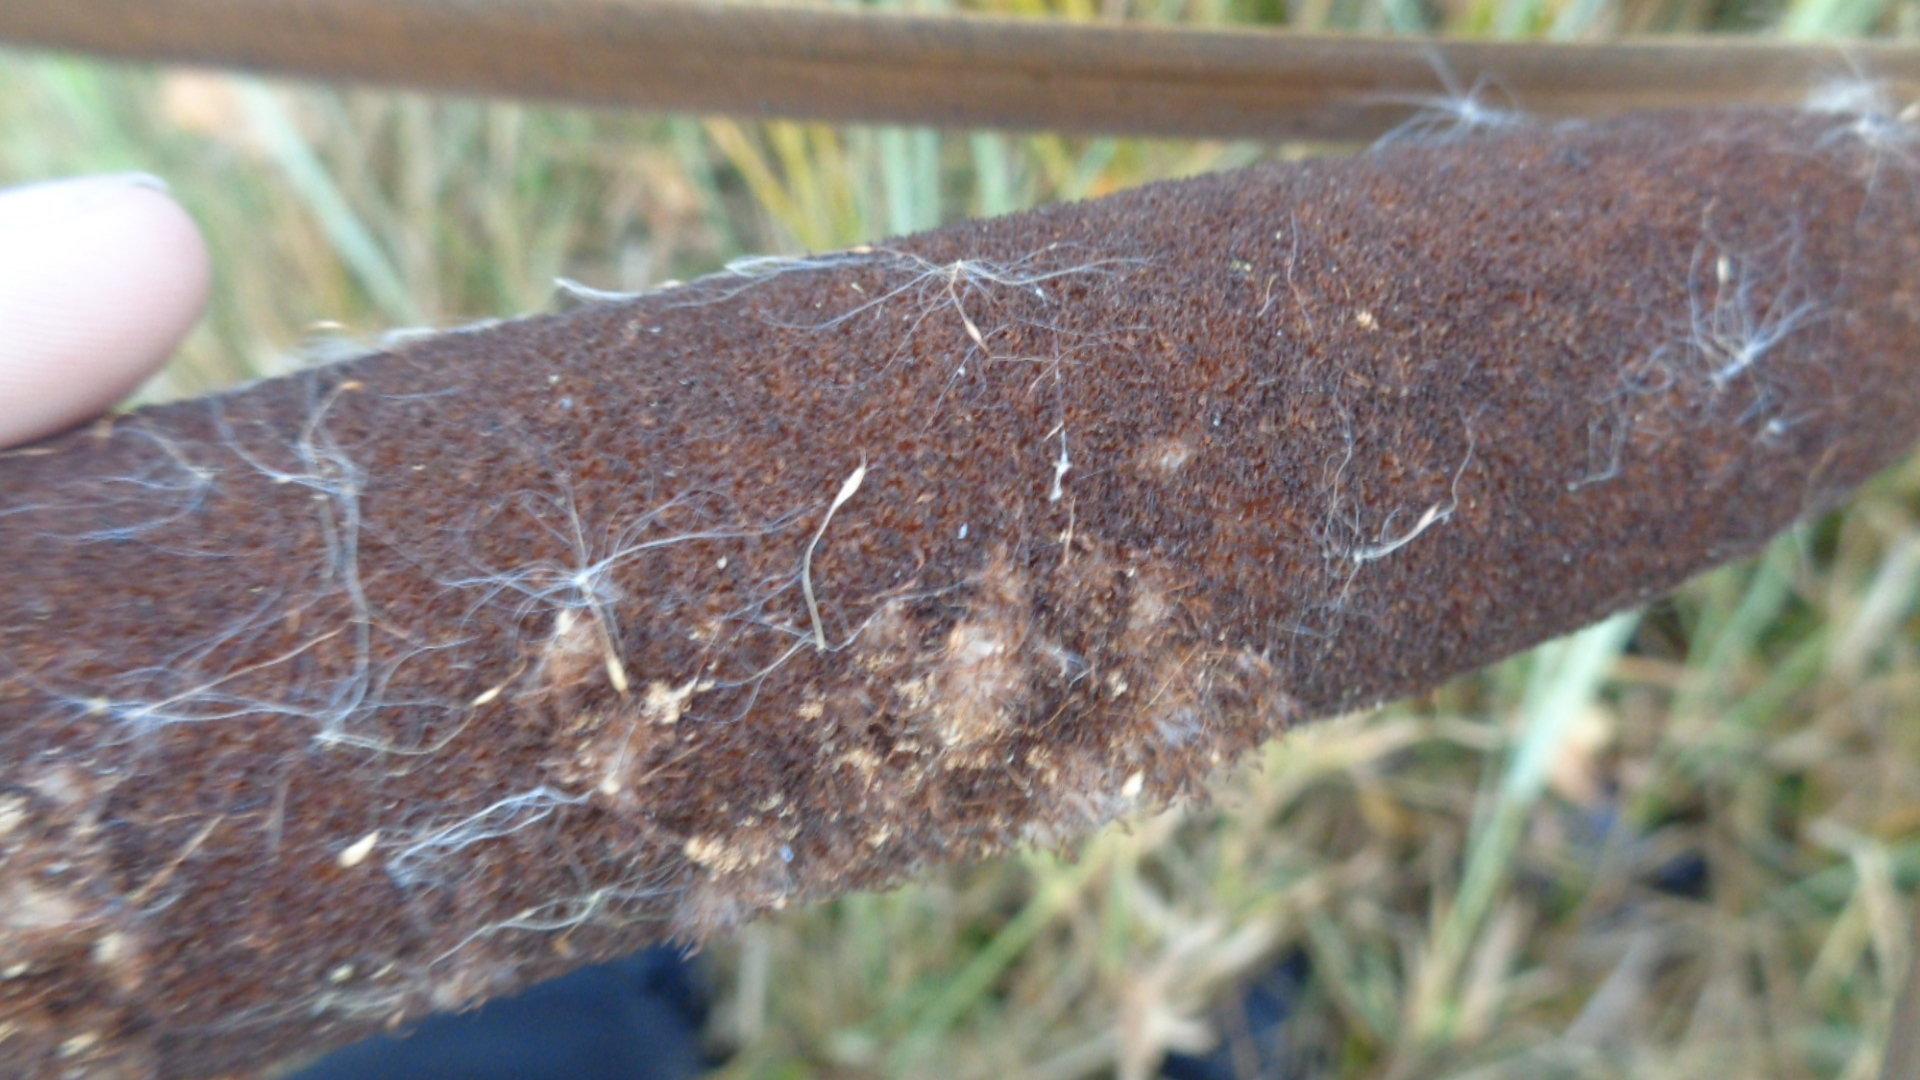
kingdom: Plantae
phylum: Tracheophyta
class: Liliopsida
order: Poales
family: Typhaceae
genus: Typha
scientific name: Typha latifolia
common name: Broadleaf cattail
